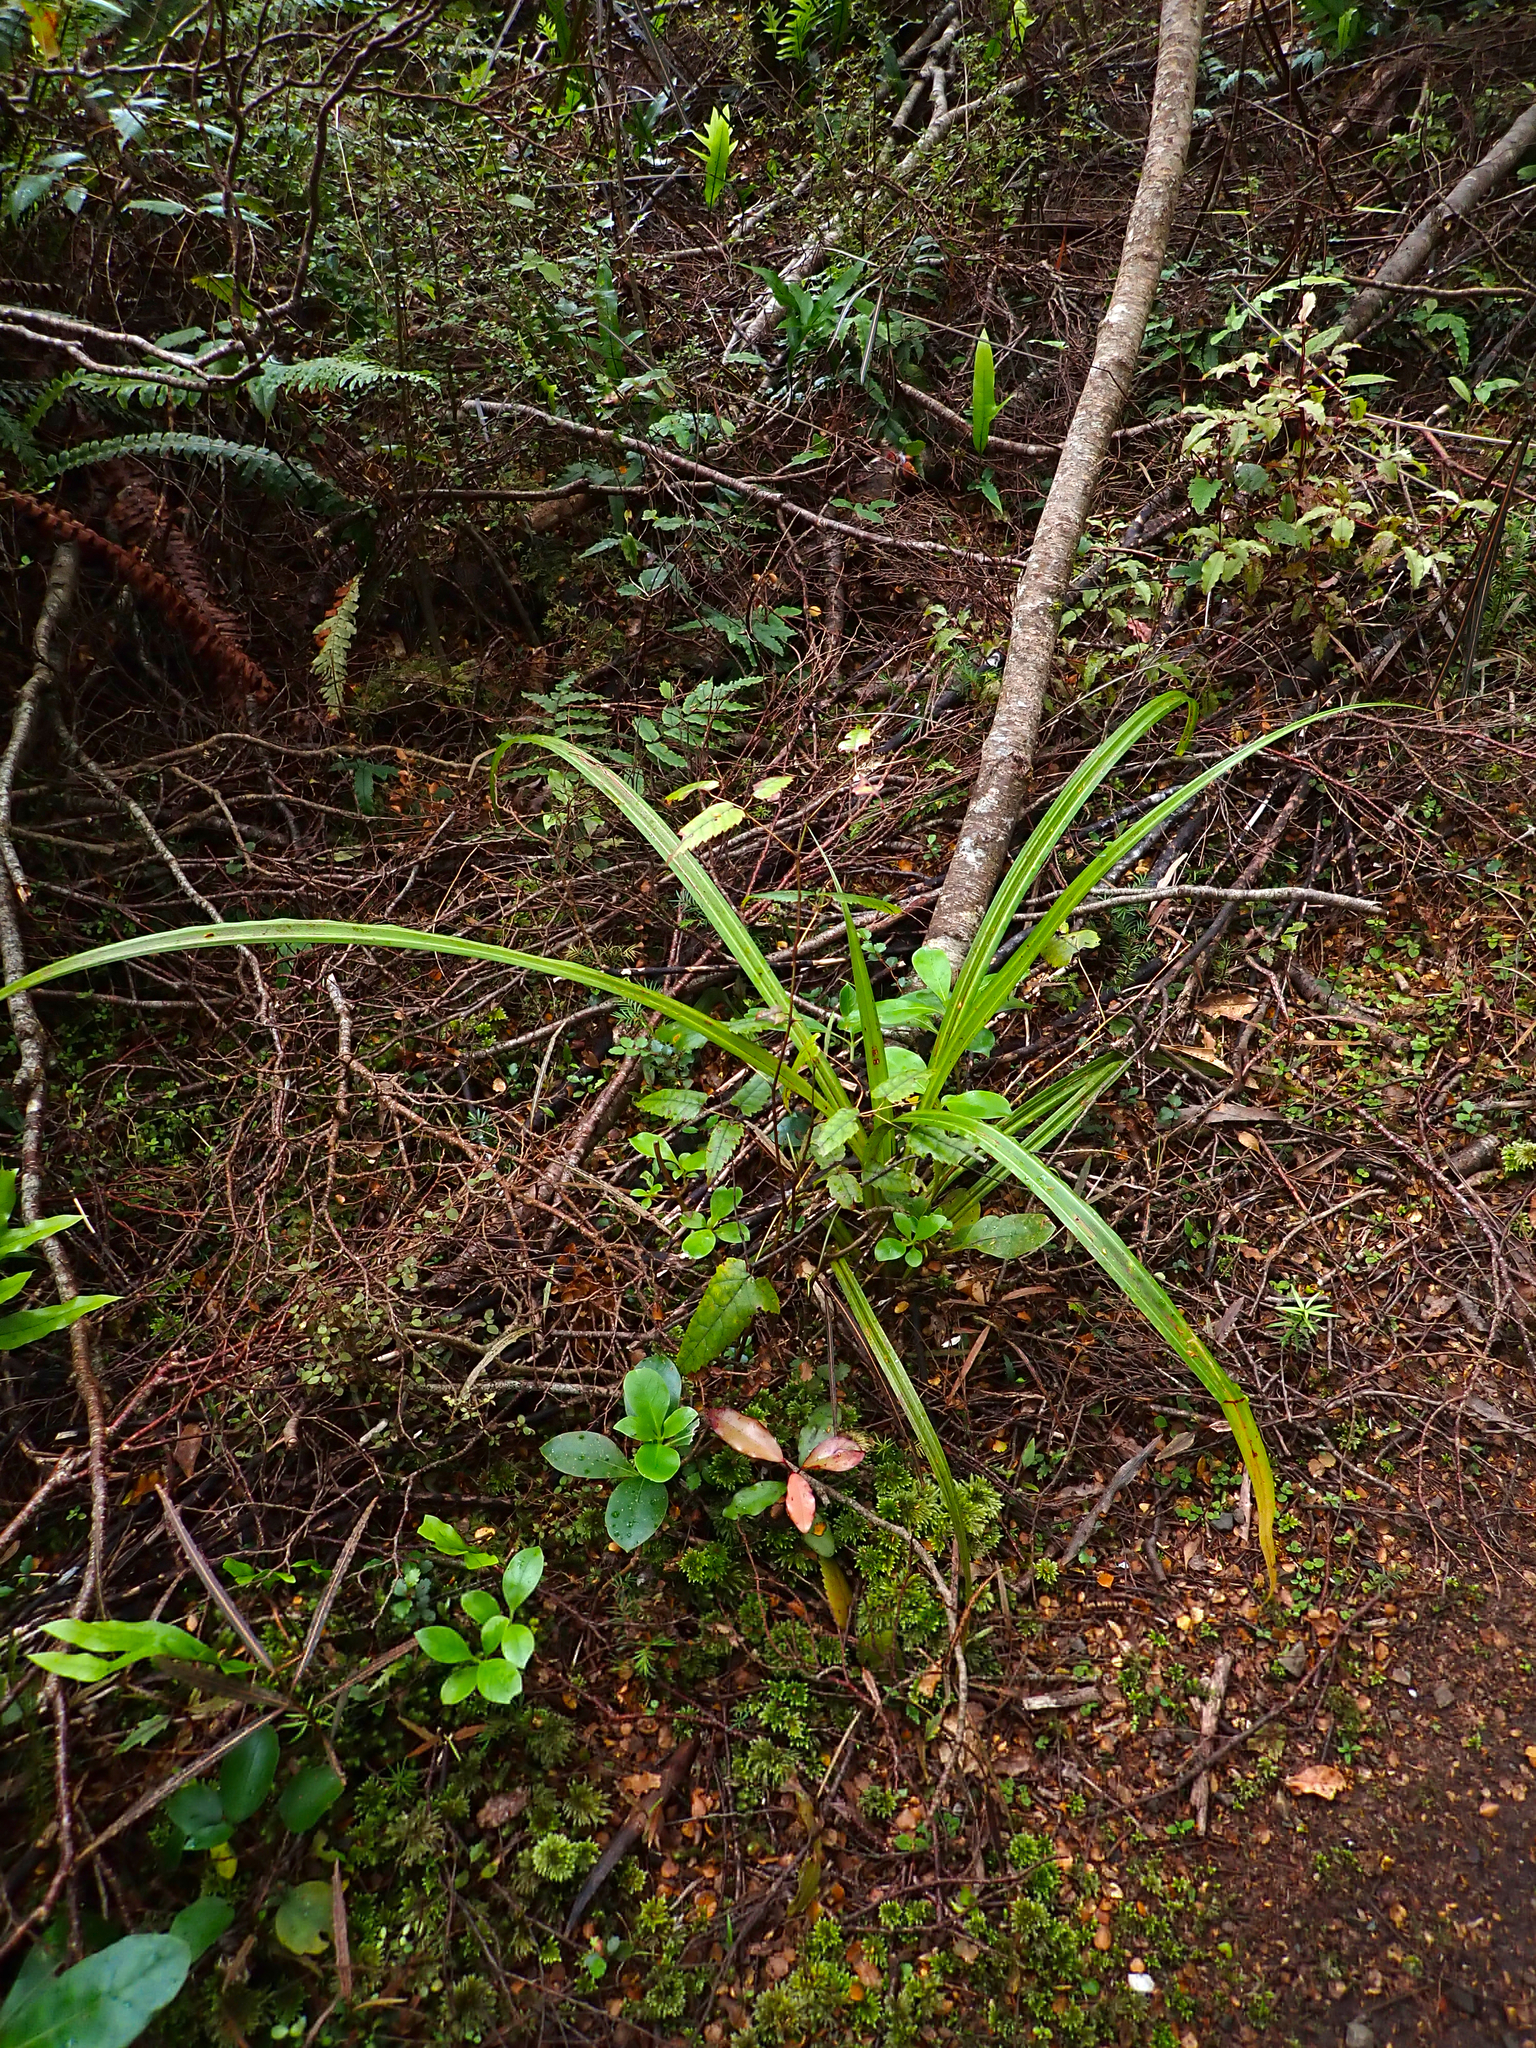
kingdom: Plantae
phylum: Tracheophyta
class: Liliopsida
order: Asparagales
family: Asteliaceae
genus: Astelia
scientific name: Astelia fragrans
